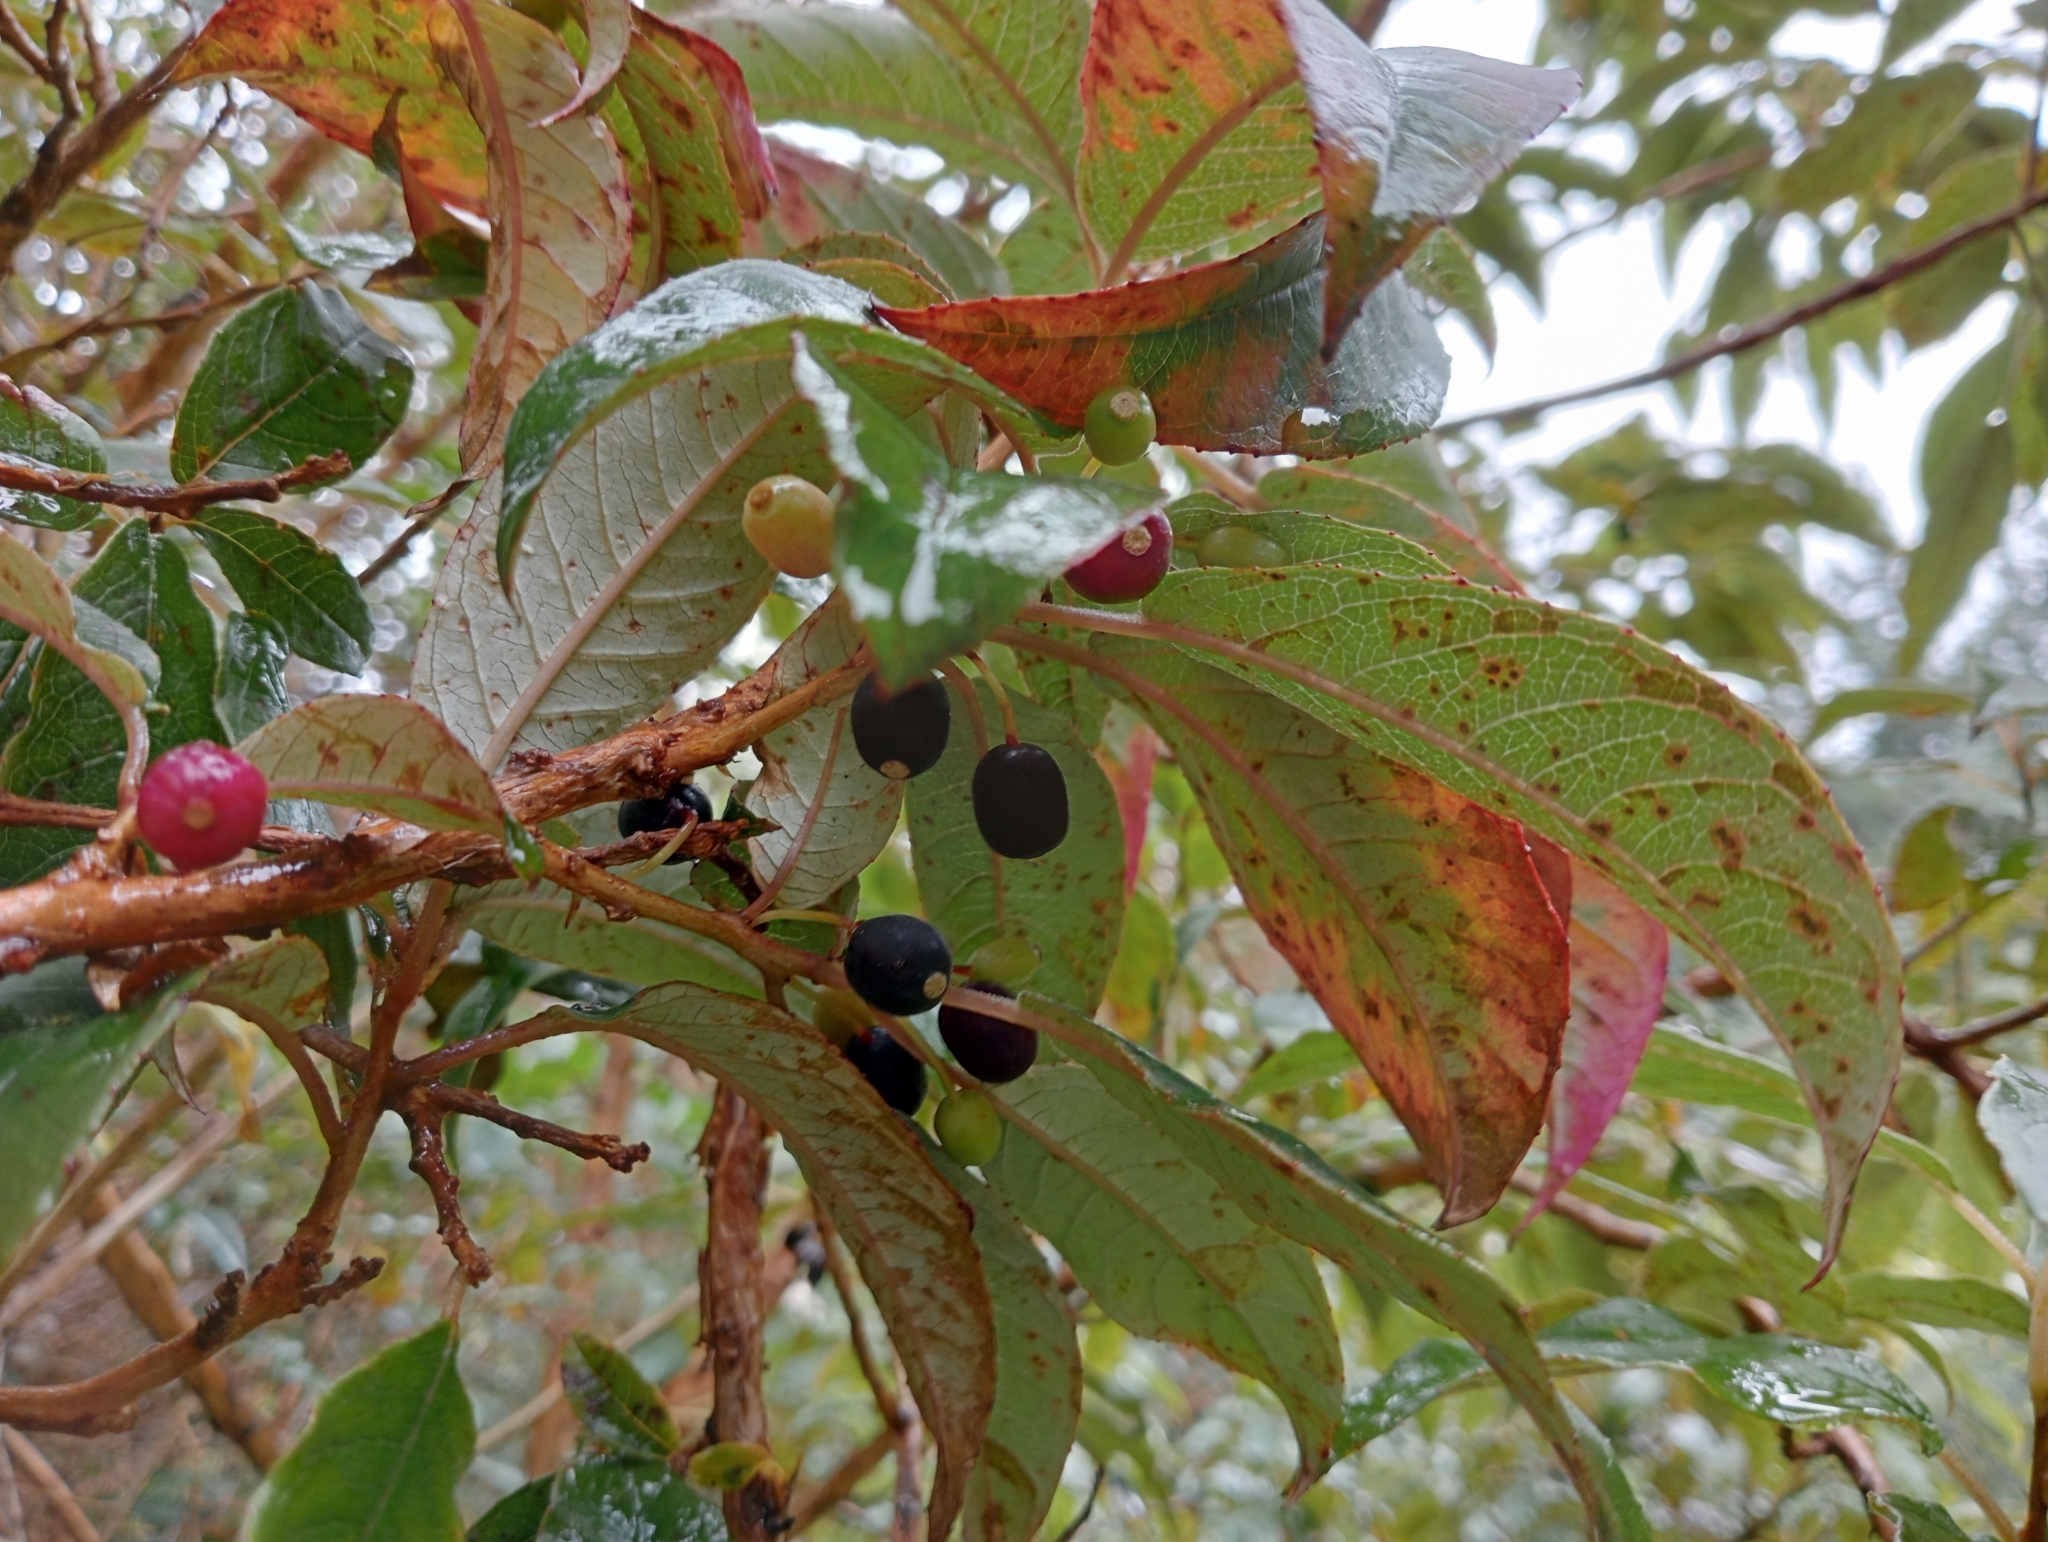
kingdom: Plantae
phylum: Tracheophyta
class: Magnoliopsida
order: Myrtales
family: Onagraceae
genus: Fuchsia
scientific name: Fuchsia excorticata
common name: Tree fuchsia
